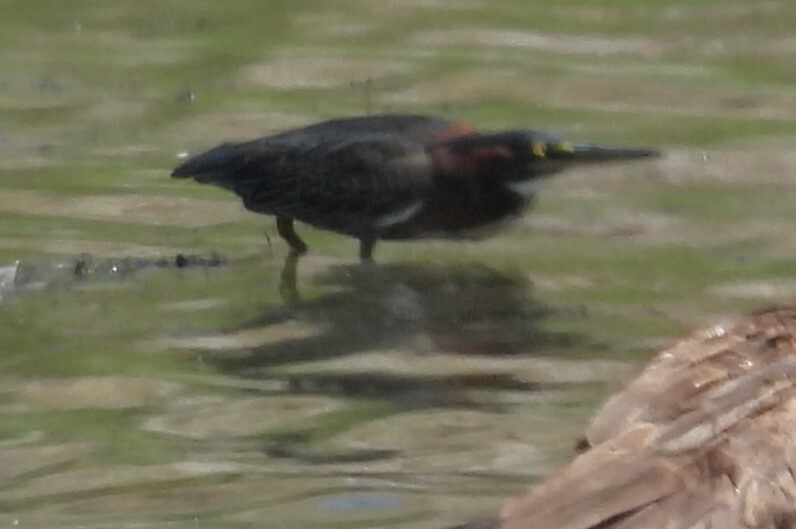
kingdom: Animalia
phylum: Chordata
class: Aves
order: Pelecaniformes
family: Ardeidae
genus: Butorides
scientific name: Butorides virescens
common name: Green heron
